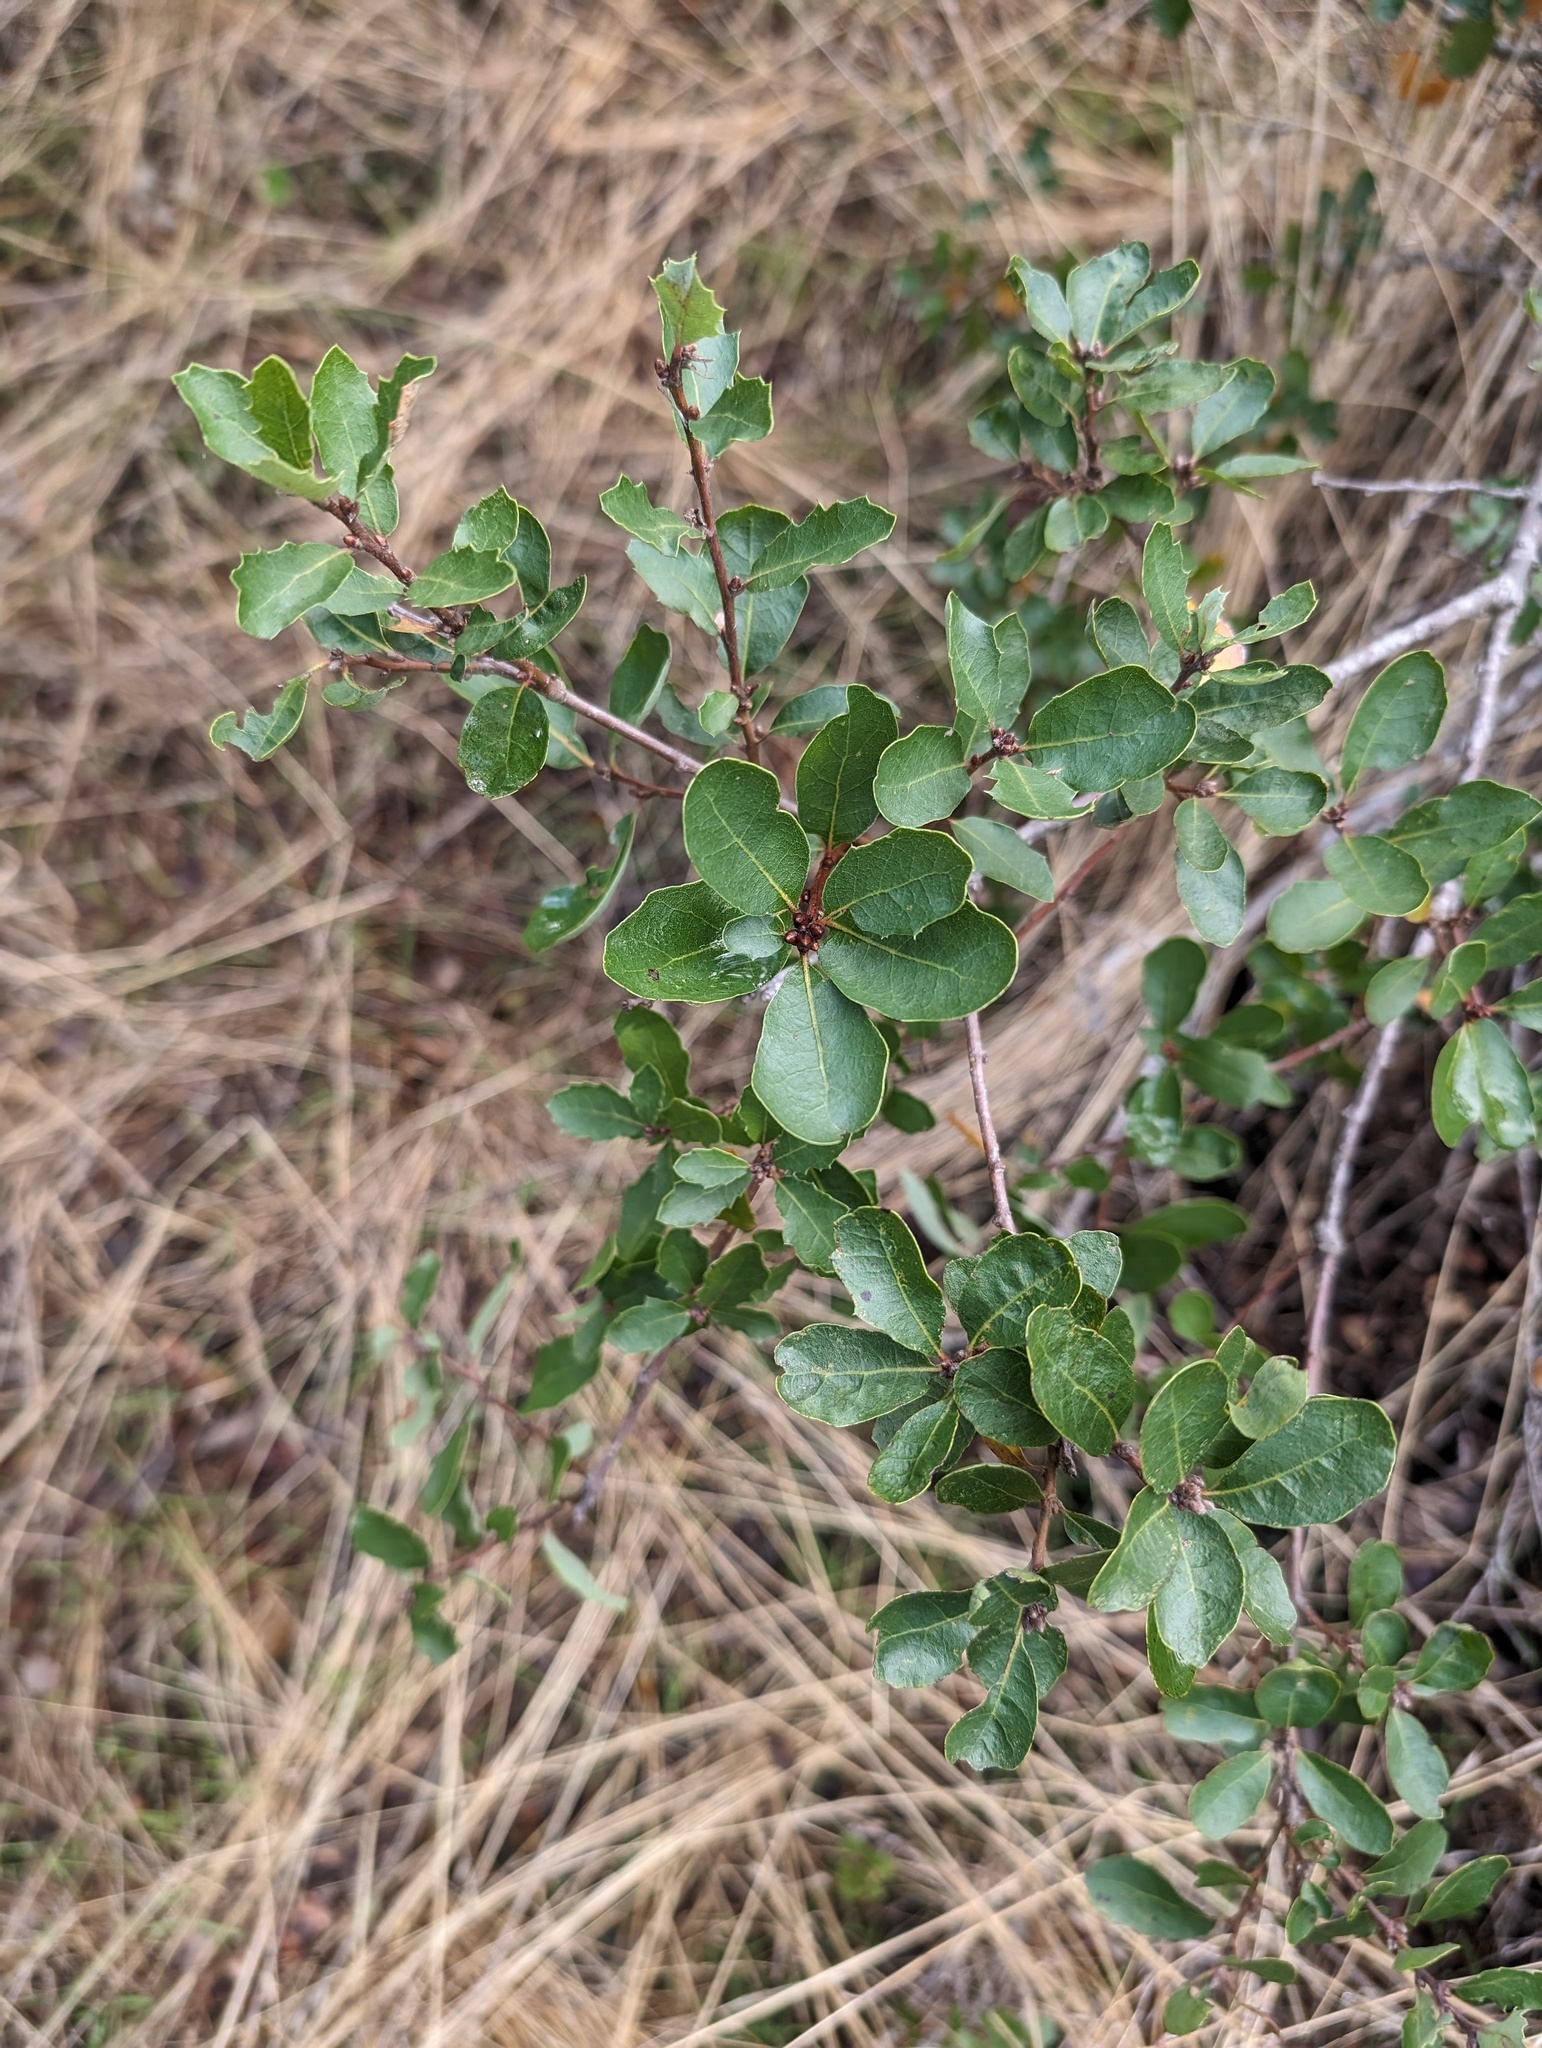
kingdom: Plantae
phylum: Tracheophyta
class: Magnoliopsida
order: Fagales
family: Fagaceae
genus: Quercus
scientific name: Quercus pacifica
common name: Channel island scrub oak
